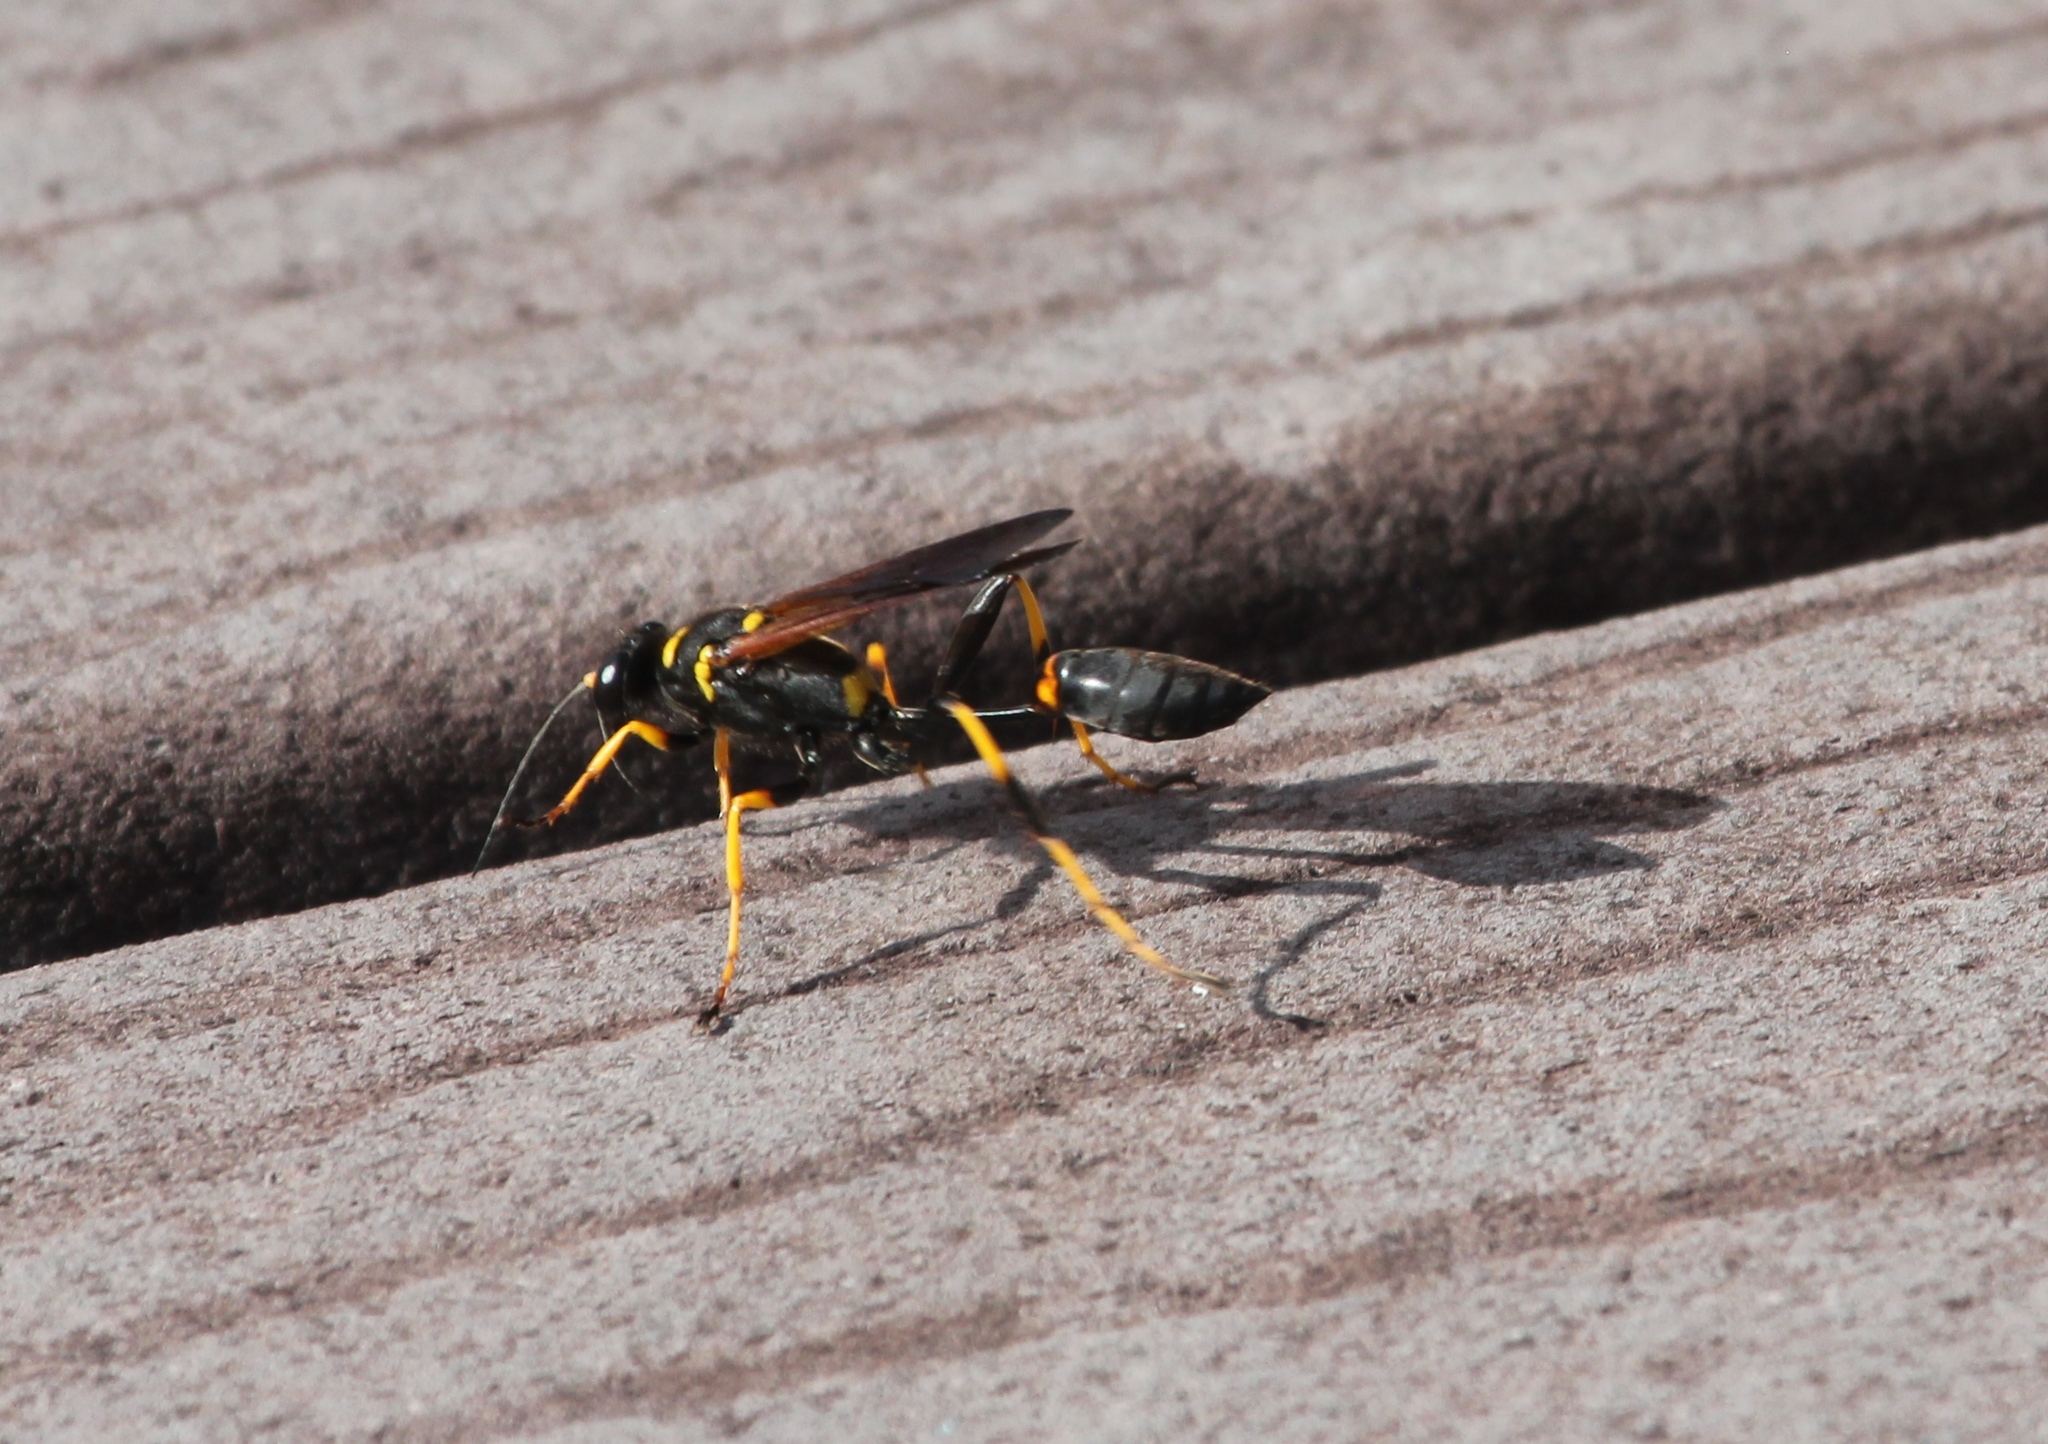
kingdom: Animalia
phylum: Arthropoda
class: Insecta
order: Hymenoptera
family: Sphecidae
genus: Sceliphron
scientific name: Sceliphron caementarium
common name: Mud dauber
